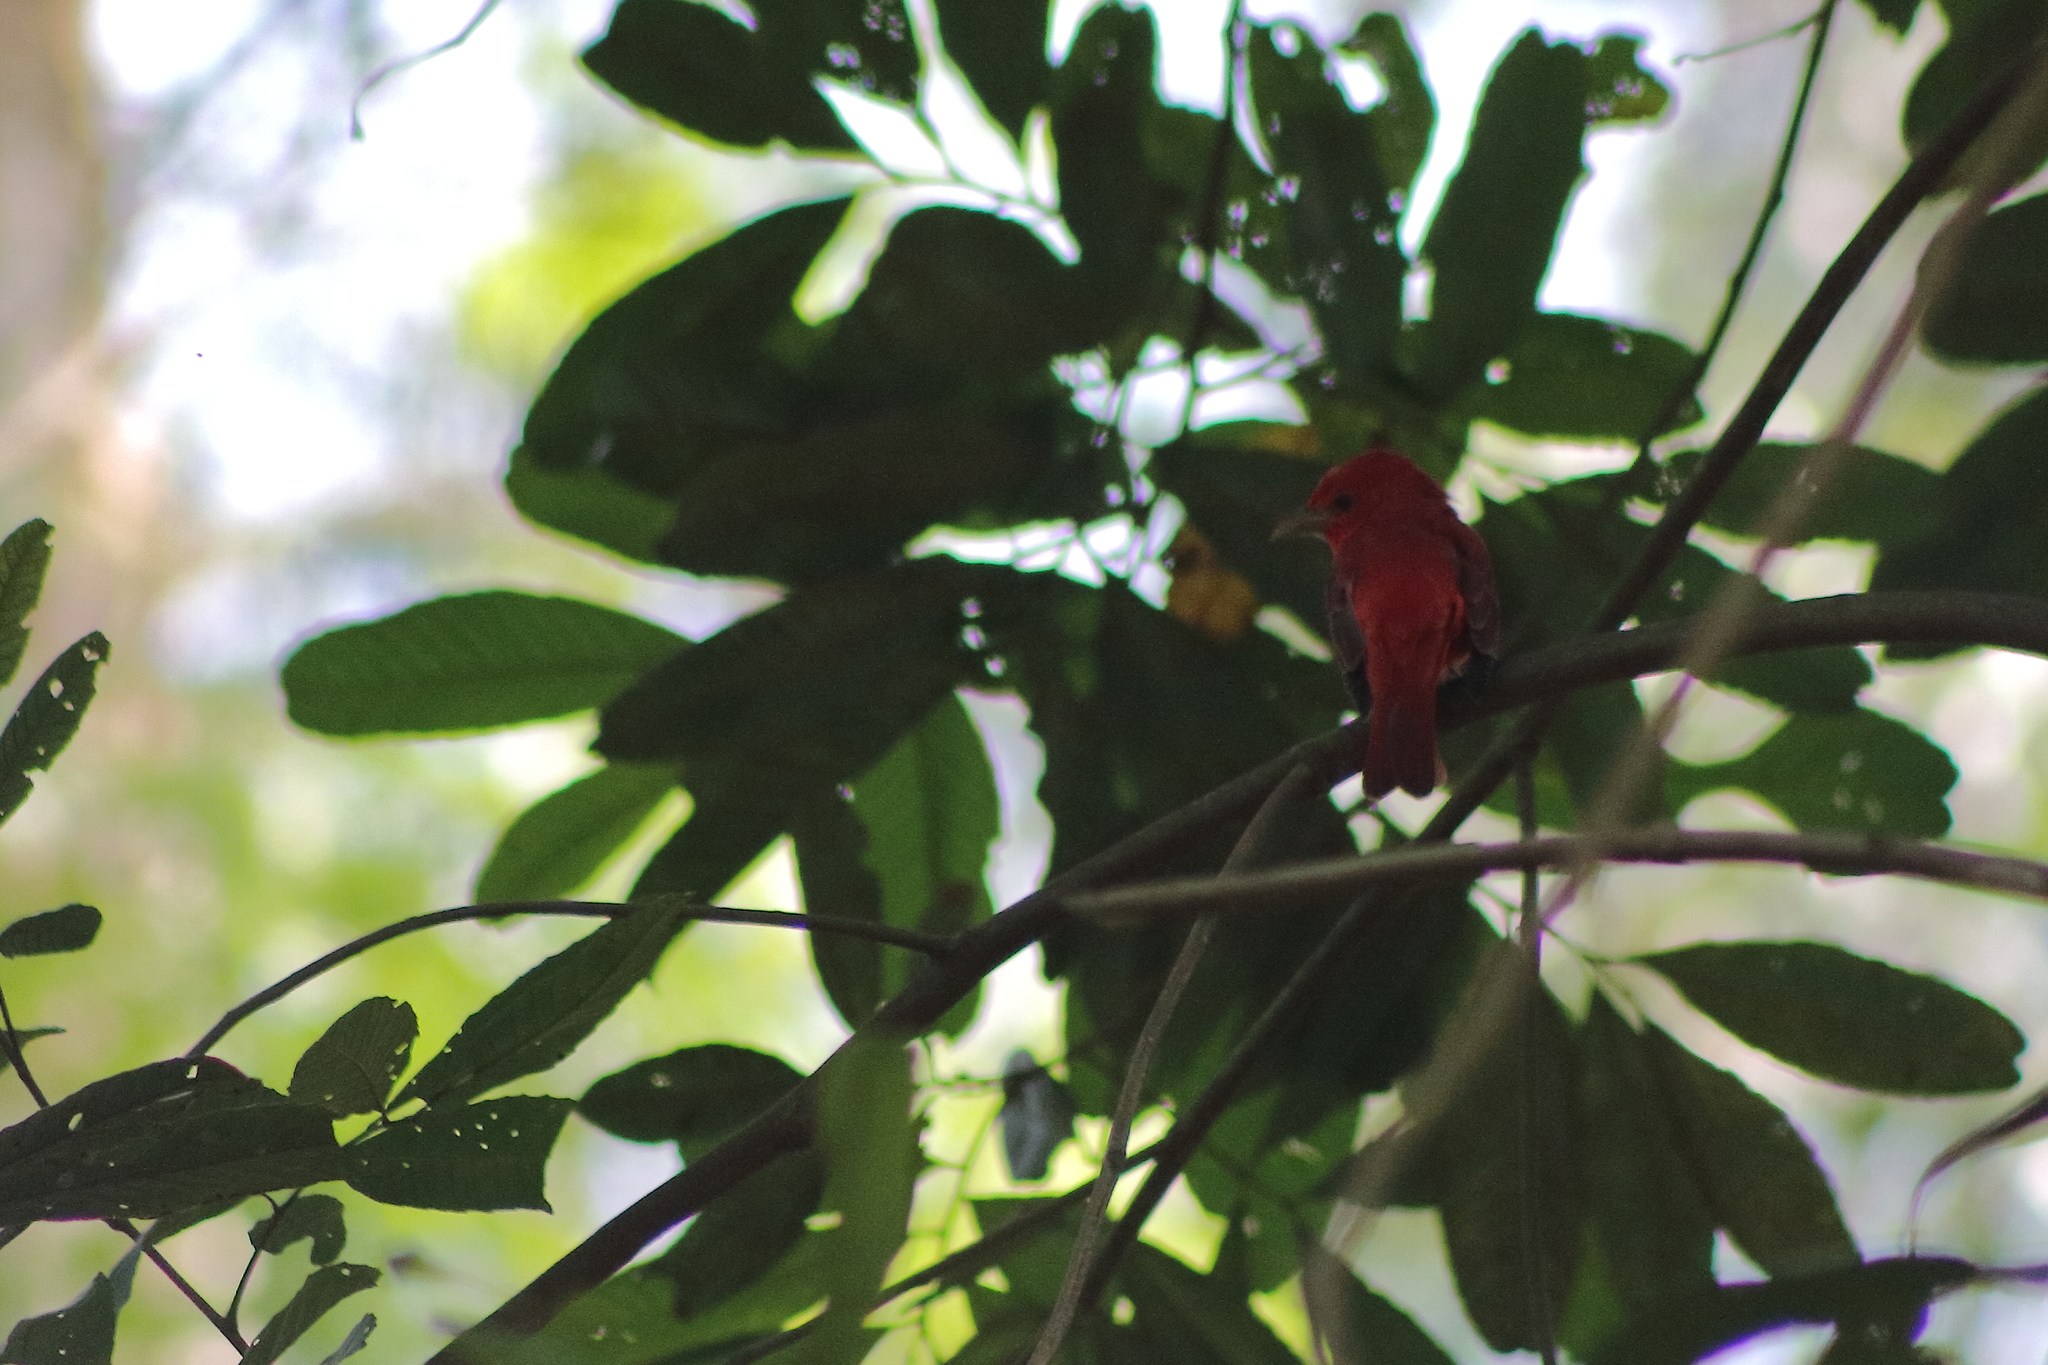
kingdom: Animalia
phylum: Chordata
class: Aves
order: Passeriformes
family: Cardinalidae
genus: Piranga
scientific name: Piranga rubra
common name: Summer tanager
